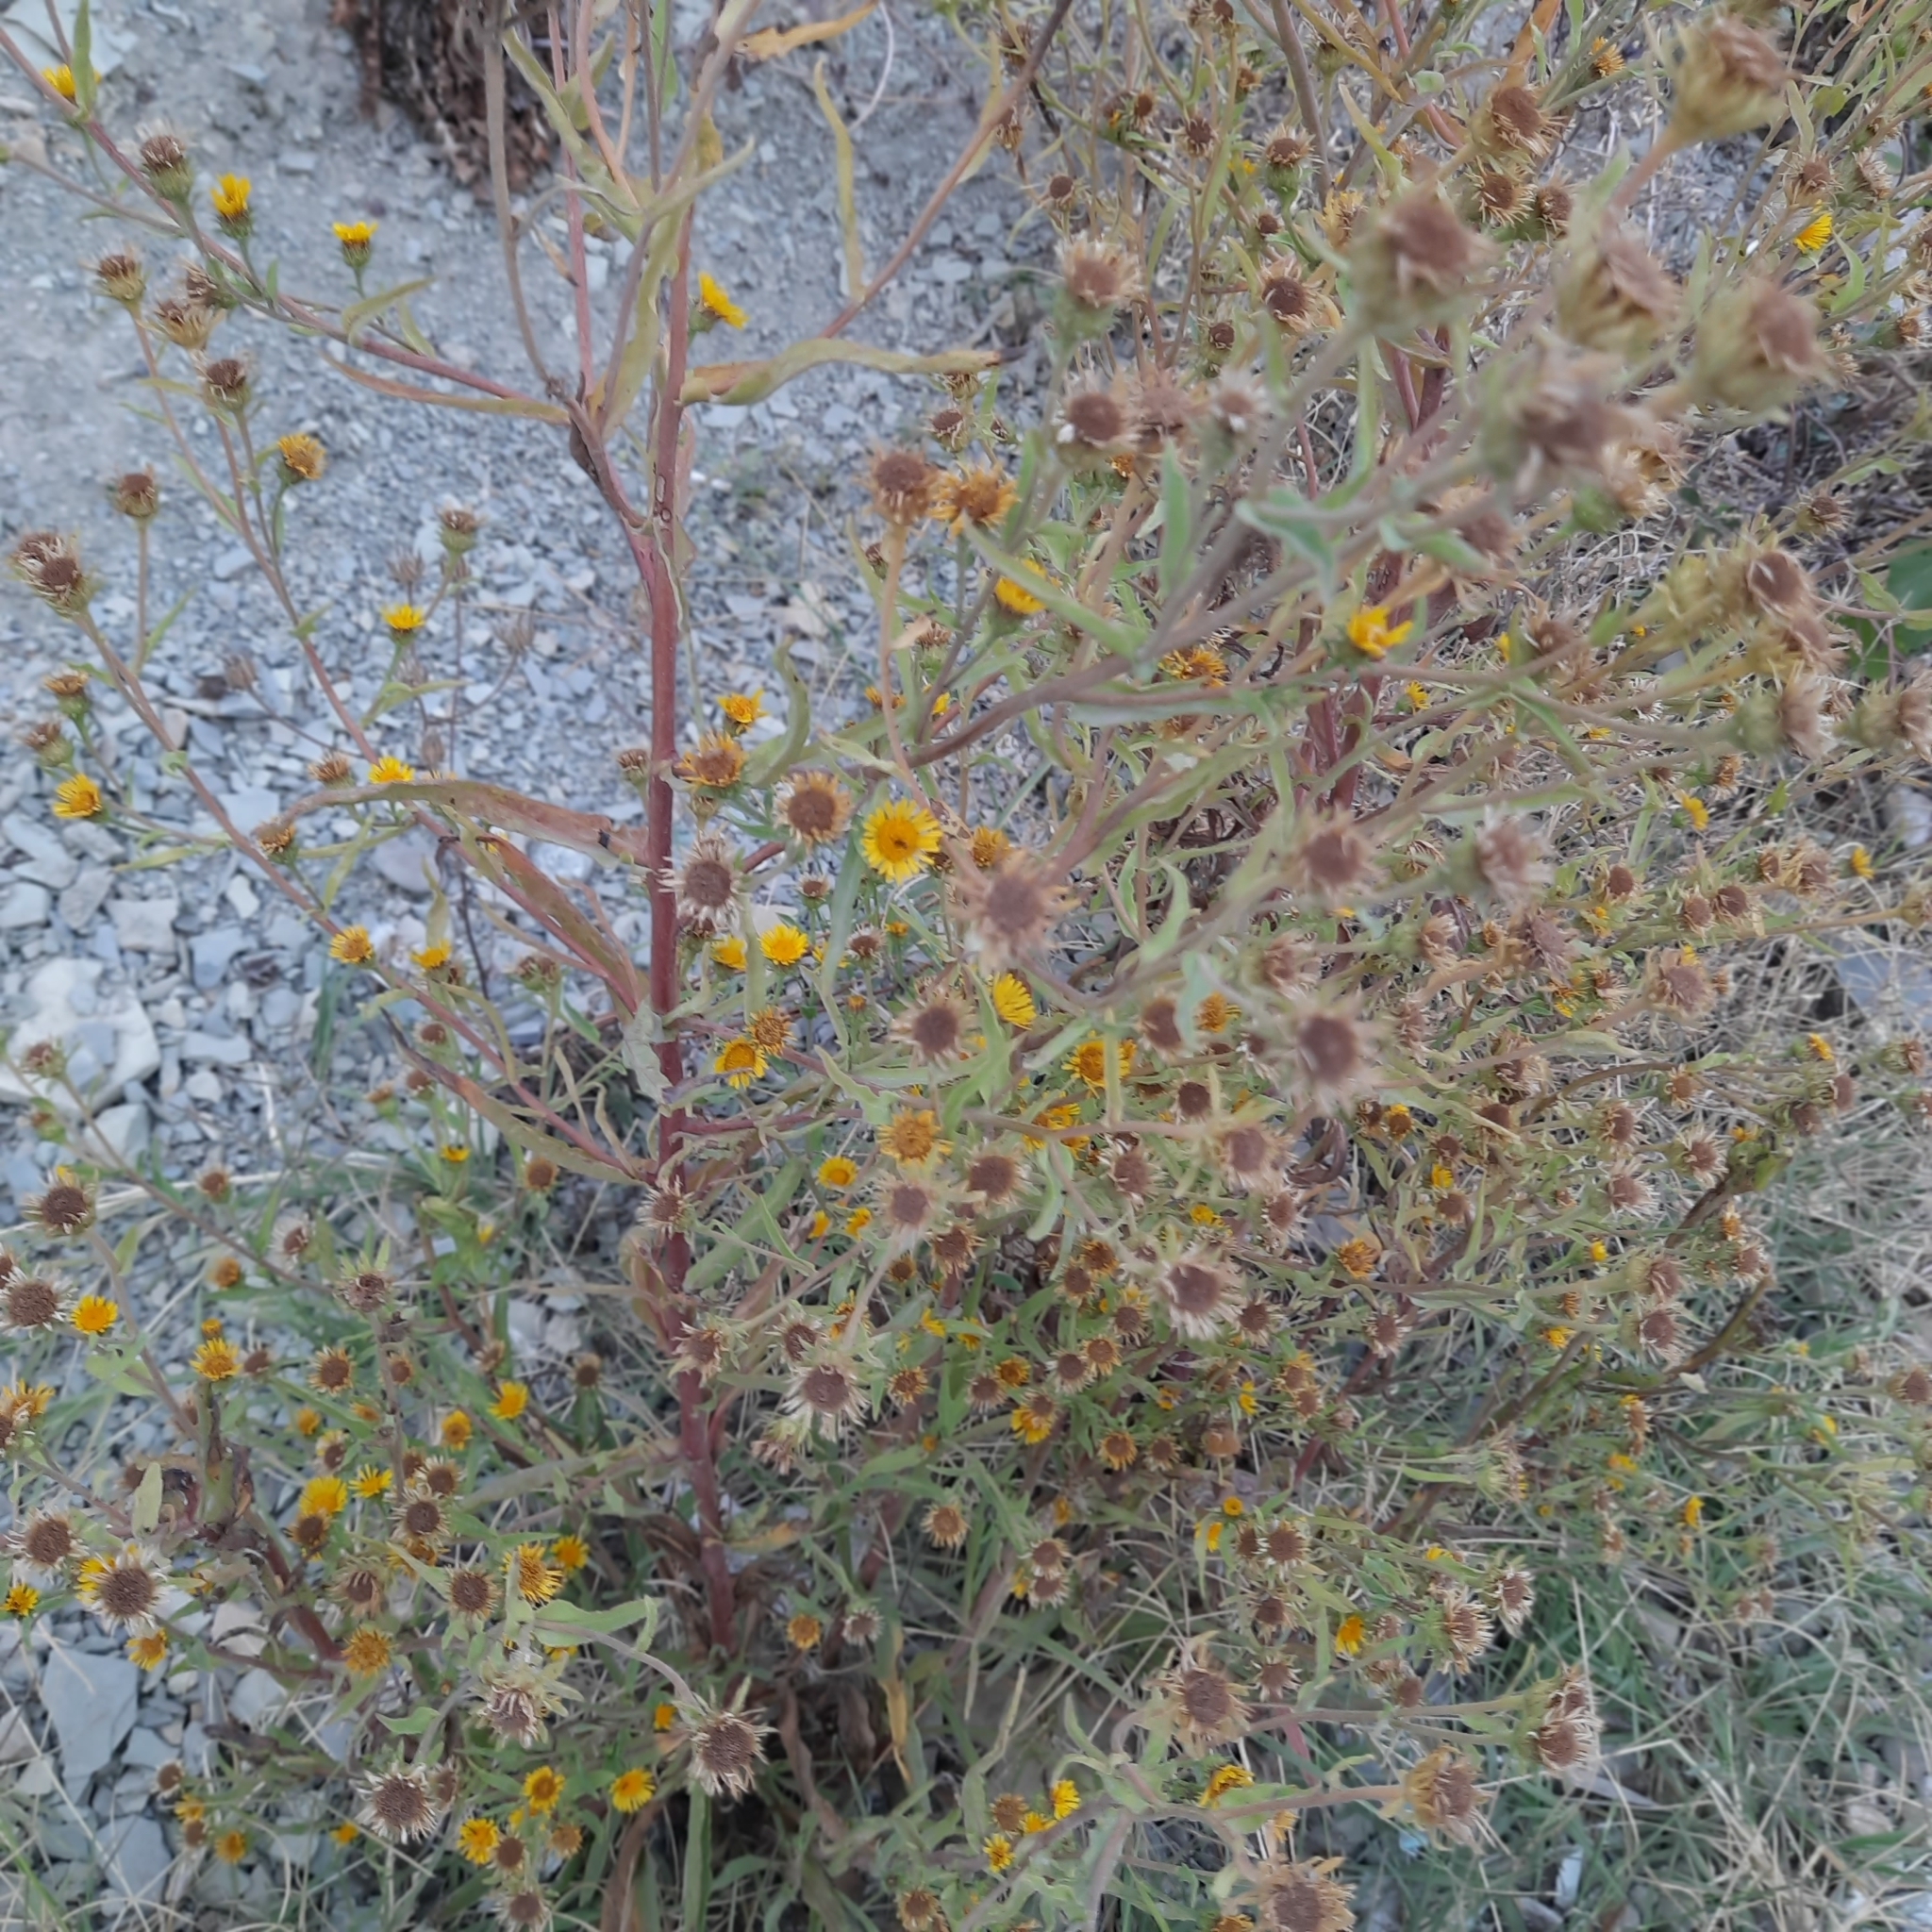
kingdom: Plantae
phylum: Tracheophyta
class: Magnoliopsida
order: Asterales
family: Asteraceae
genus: Pulicaria
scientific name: Pulicaria vulgaris
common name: Small fleabane
